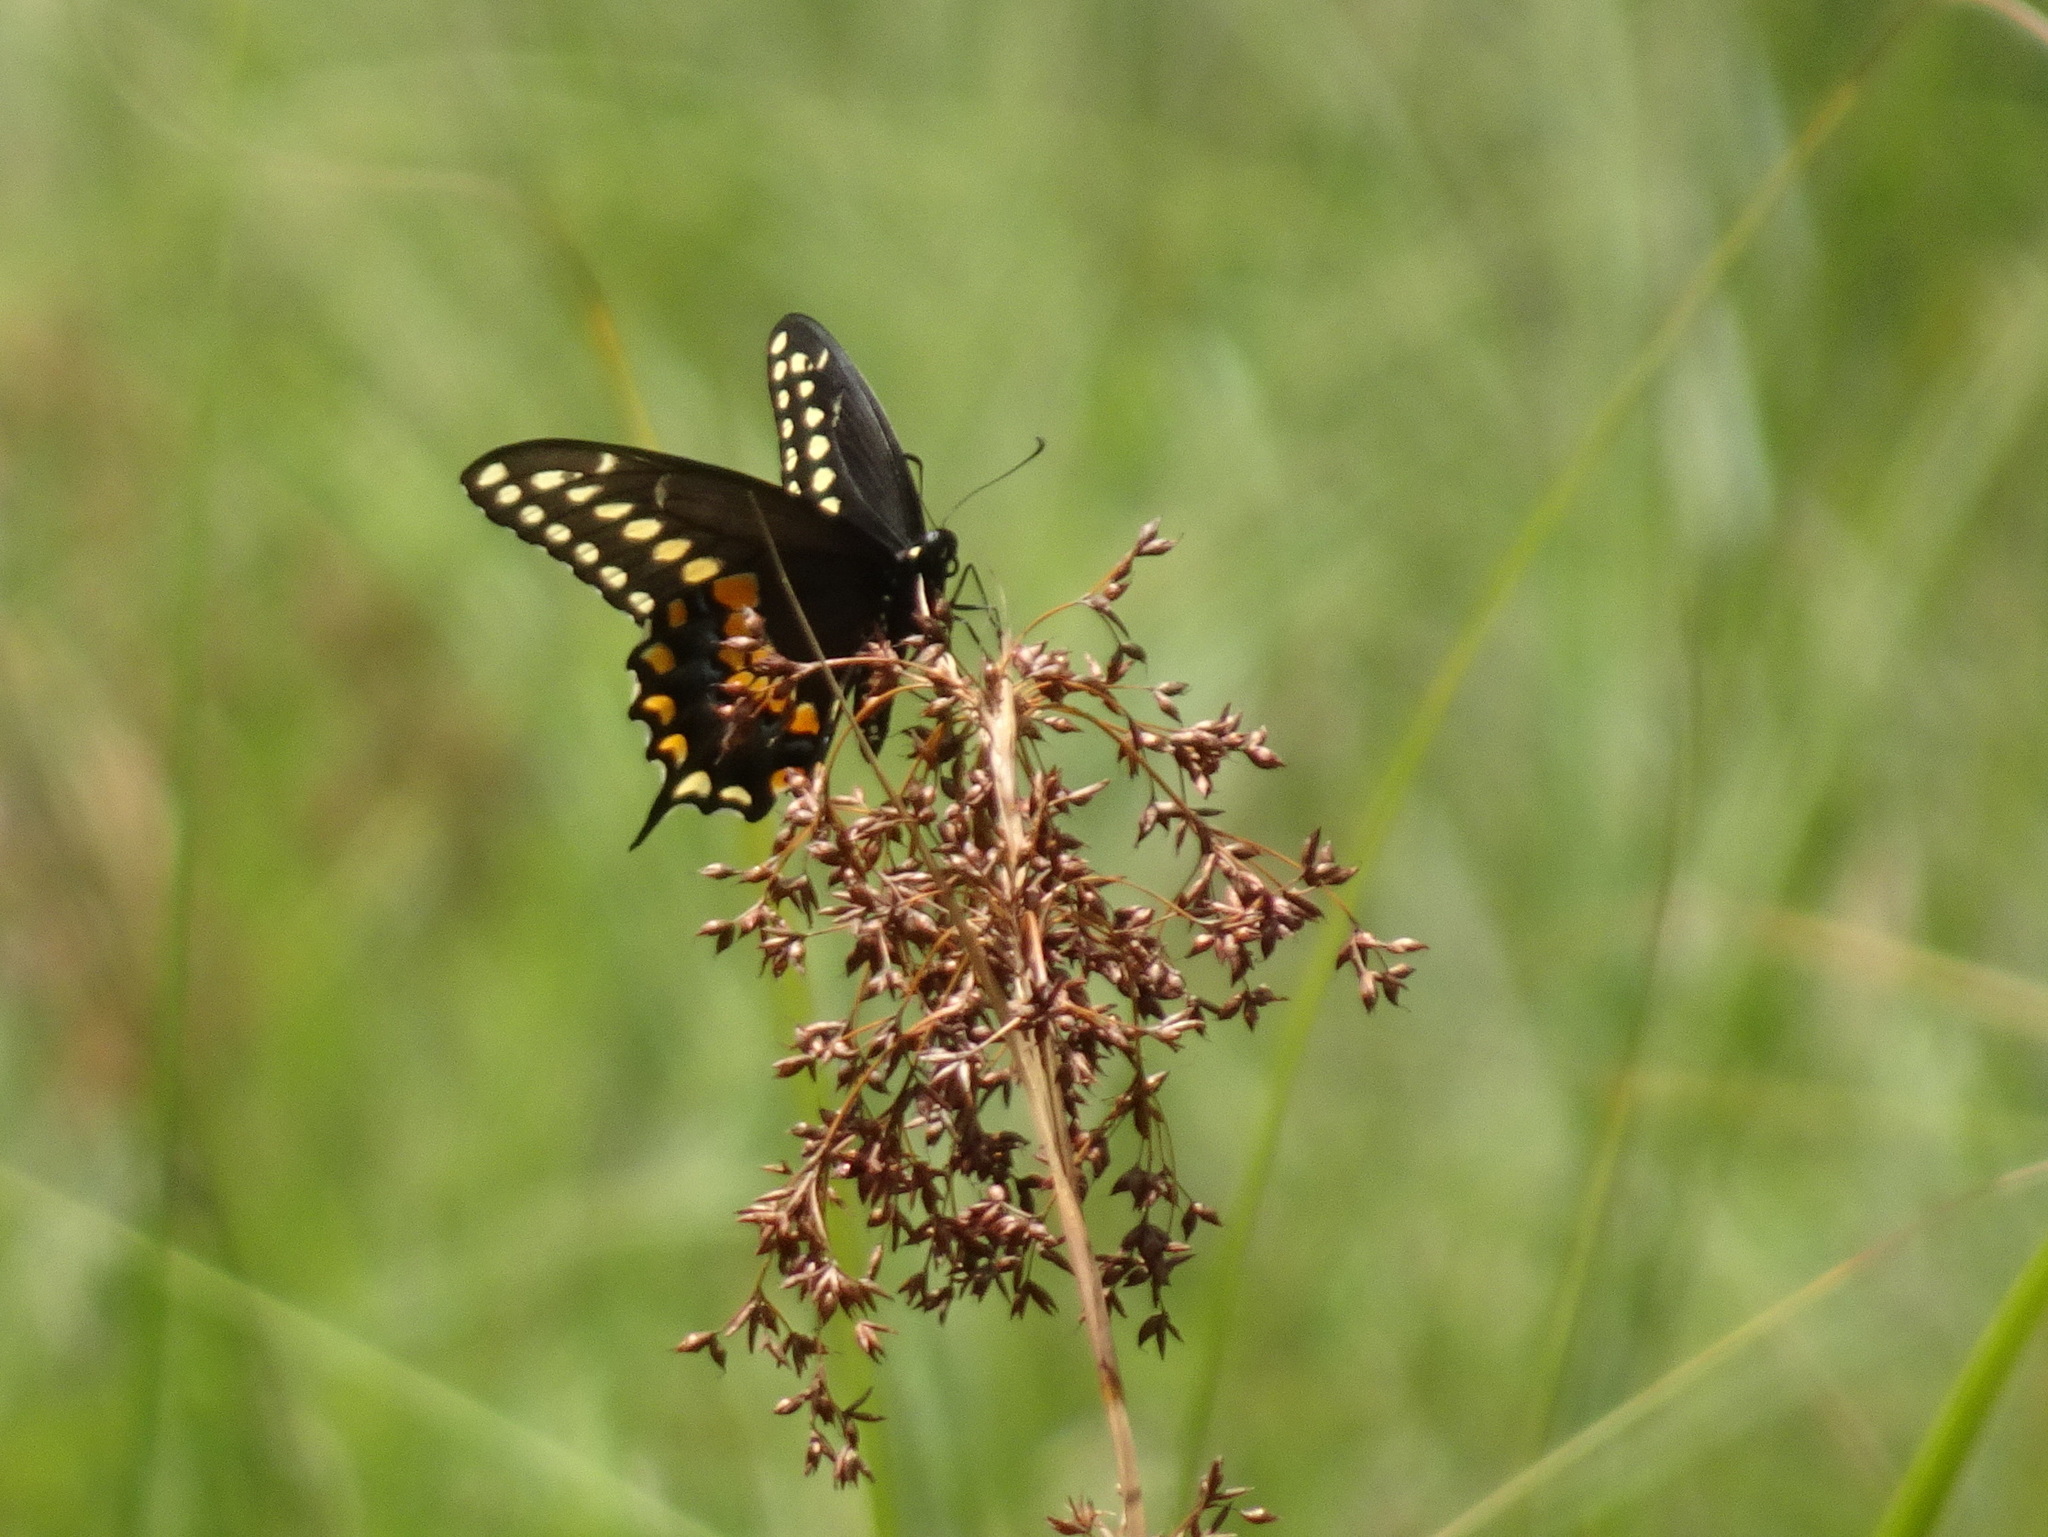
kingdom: Animalia
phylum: Arthropoda
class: Insecta
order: Lepidoptera
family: Papilionidae
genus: Papilio
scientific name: Papilio polyxenes
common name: Black swallowtail
